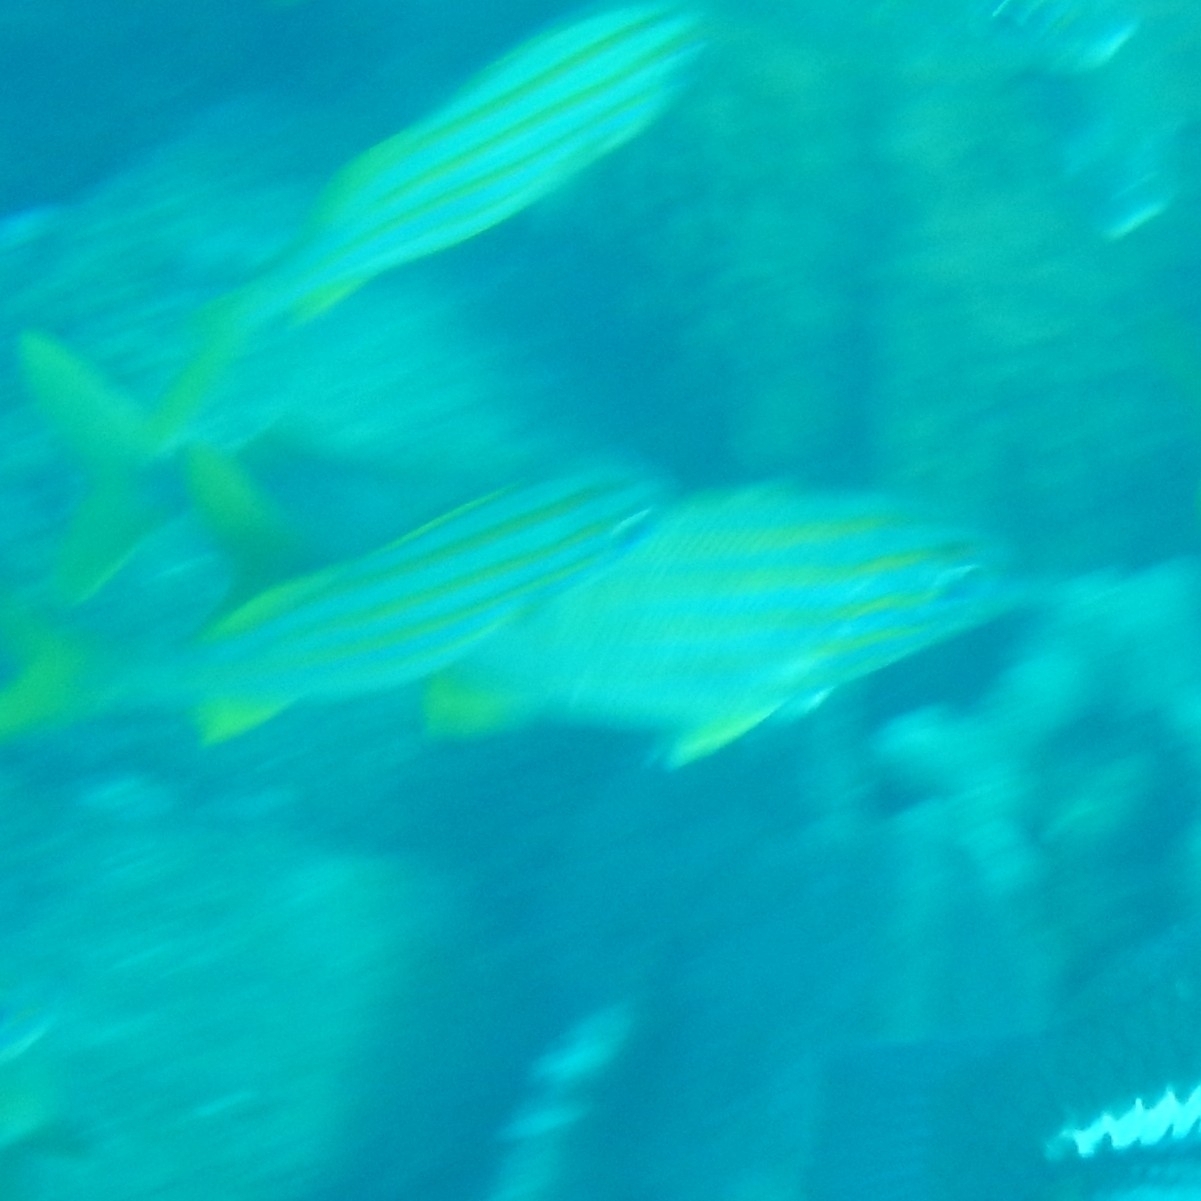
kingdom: Animalia
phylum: Chordata
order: Perciformes
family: Haemulidae
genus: Haemulon
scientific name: Haemulon chrysargyreum
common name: Smallmouth grunt
